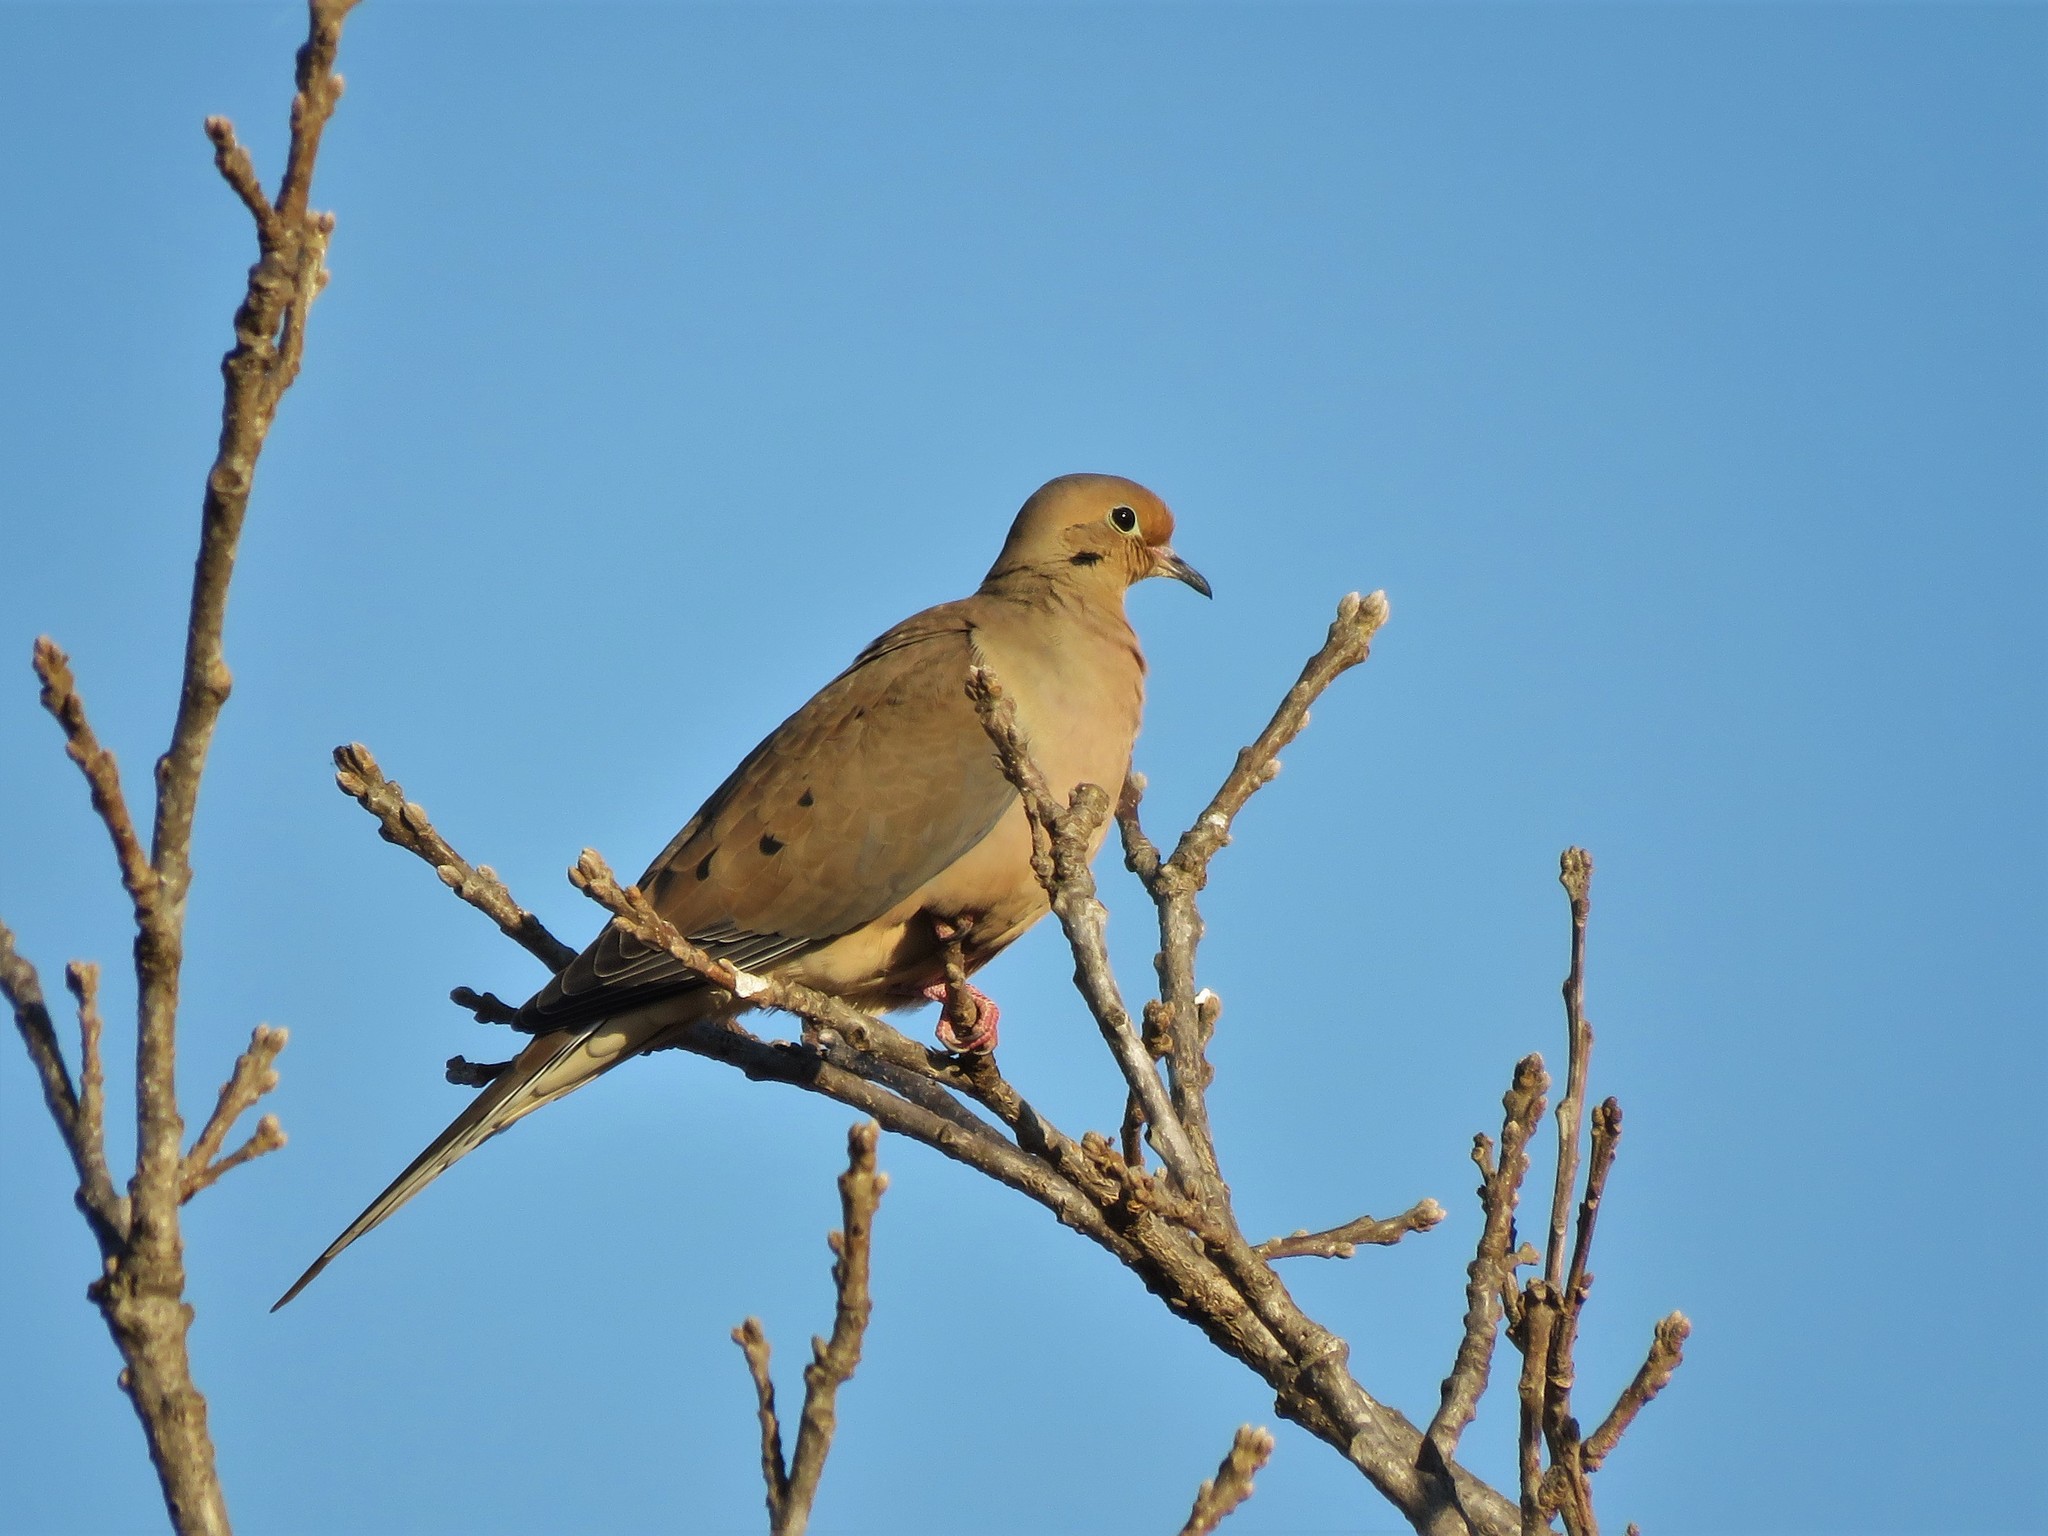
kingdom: Animalia
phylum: Chordata
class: Aves
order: Columbiformes
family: Columbidae
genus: Zenaida
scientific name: Zenaida macroura
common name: Mourning dove
